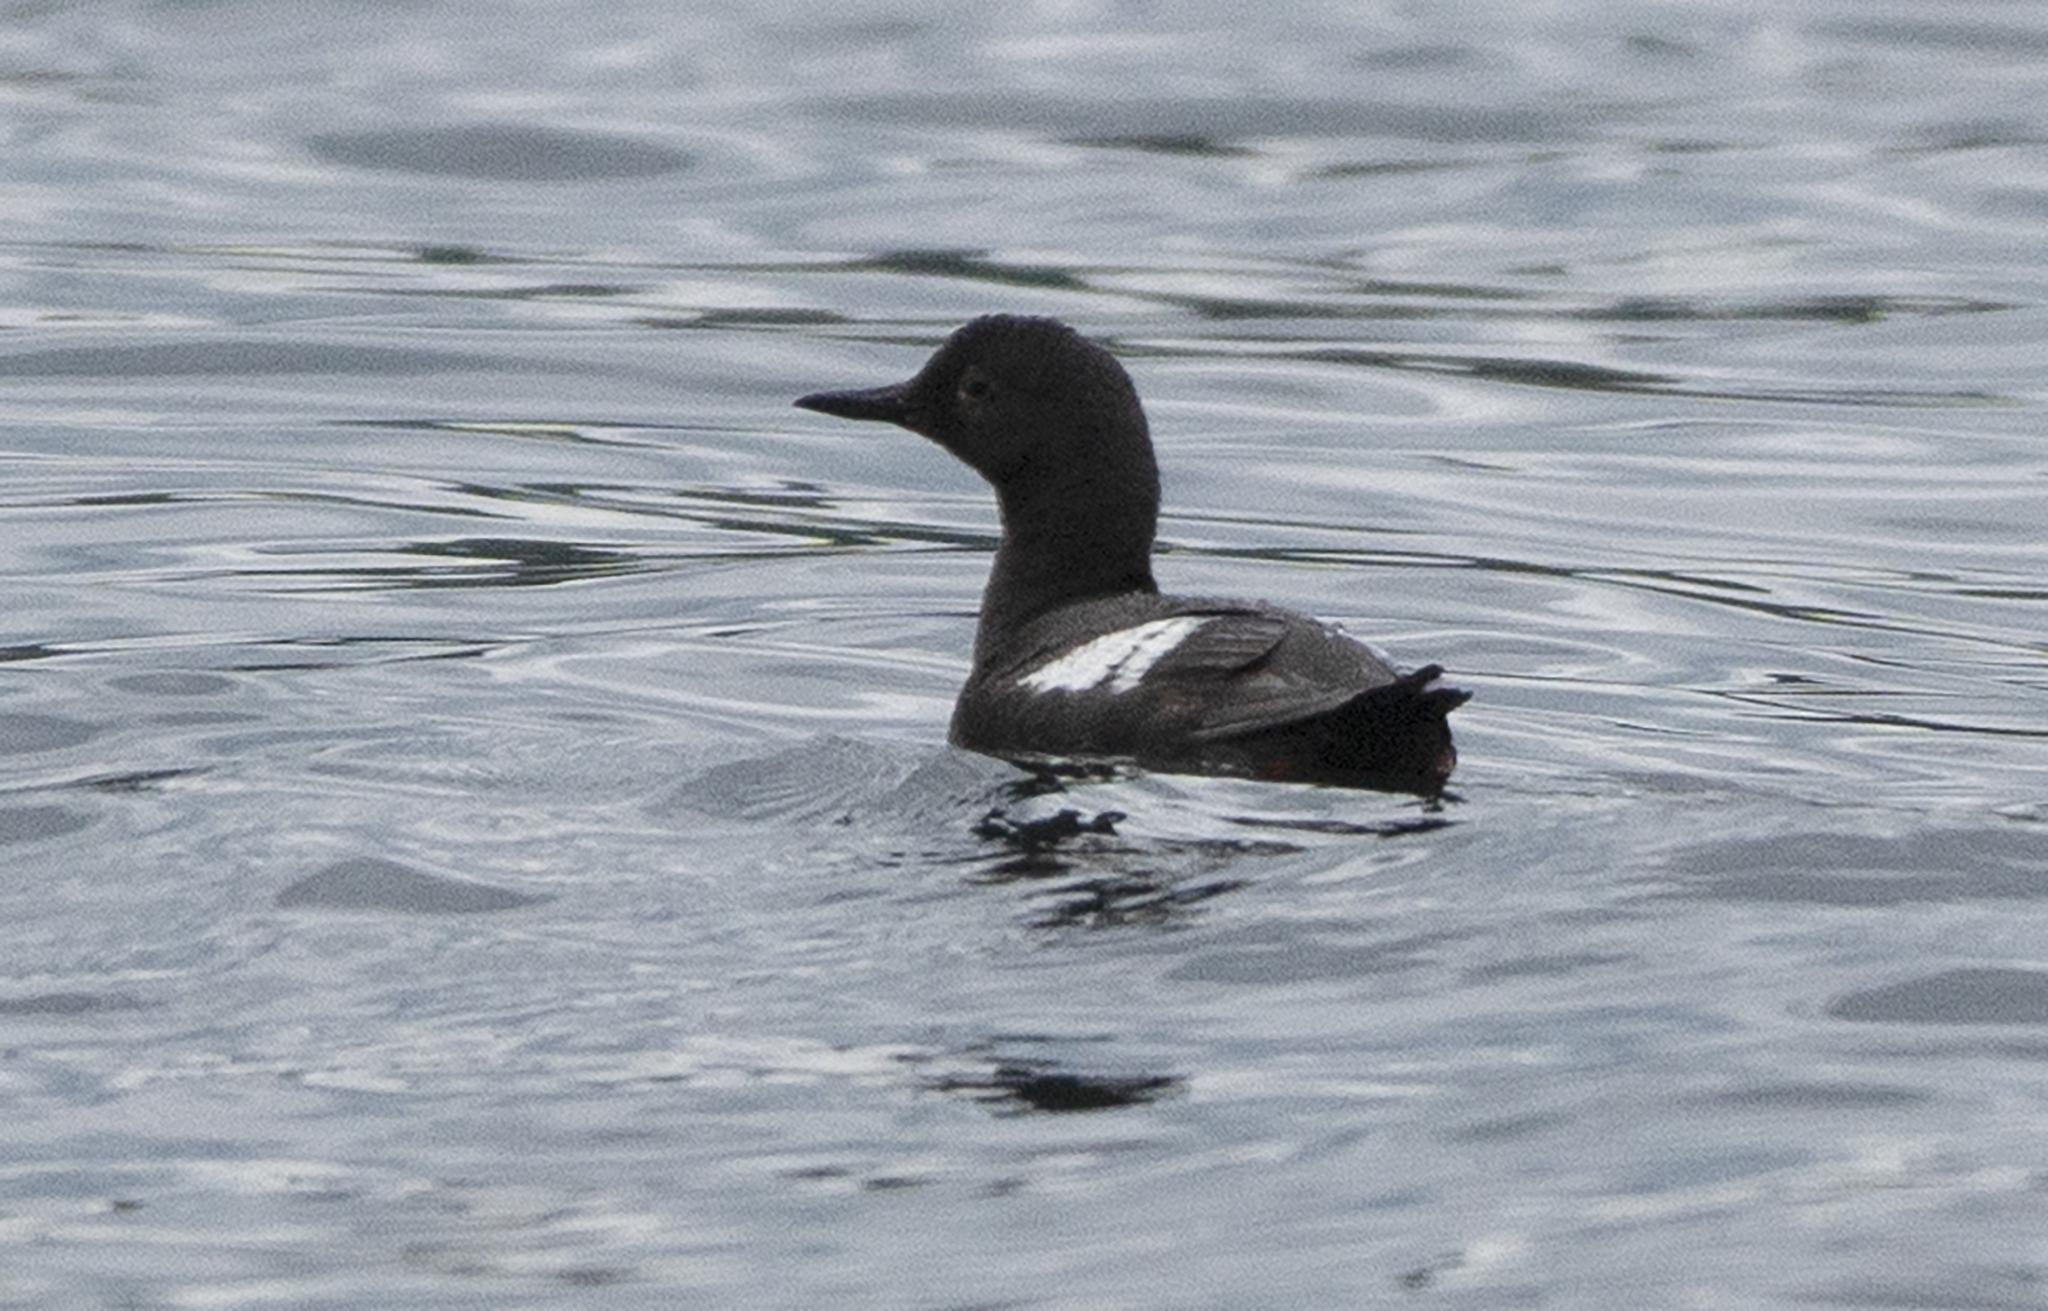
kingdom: Animalia
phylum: Chordata
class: Aves
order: Charadriiformes
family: Alcidae
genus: Cepphus
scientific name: Cepphus columba
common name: Pigeon guillemot
